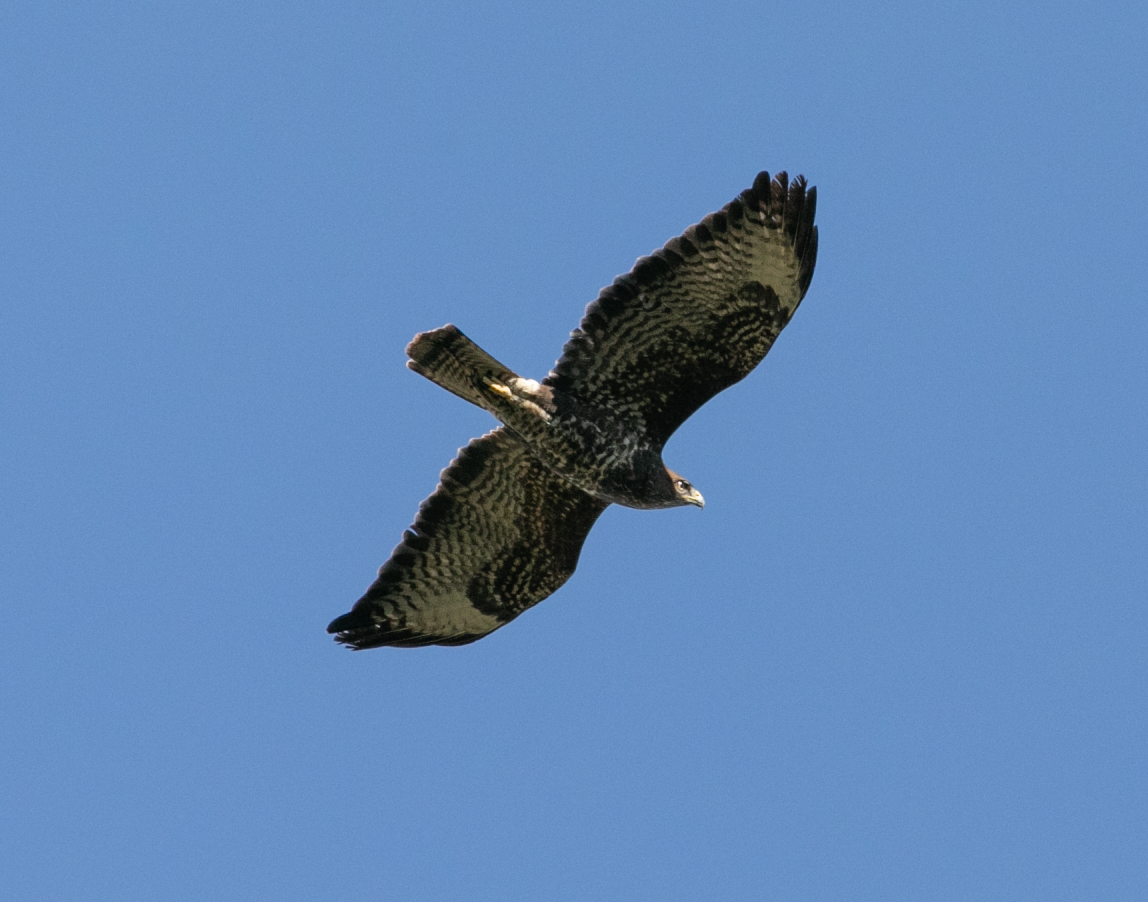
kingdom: Animalia
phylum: Chordata
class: Aves
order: Accipitriformes
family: Accipitridae
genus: Buteo
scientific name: Buteo buteo
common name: Common buzzard
